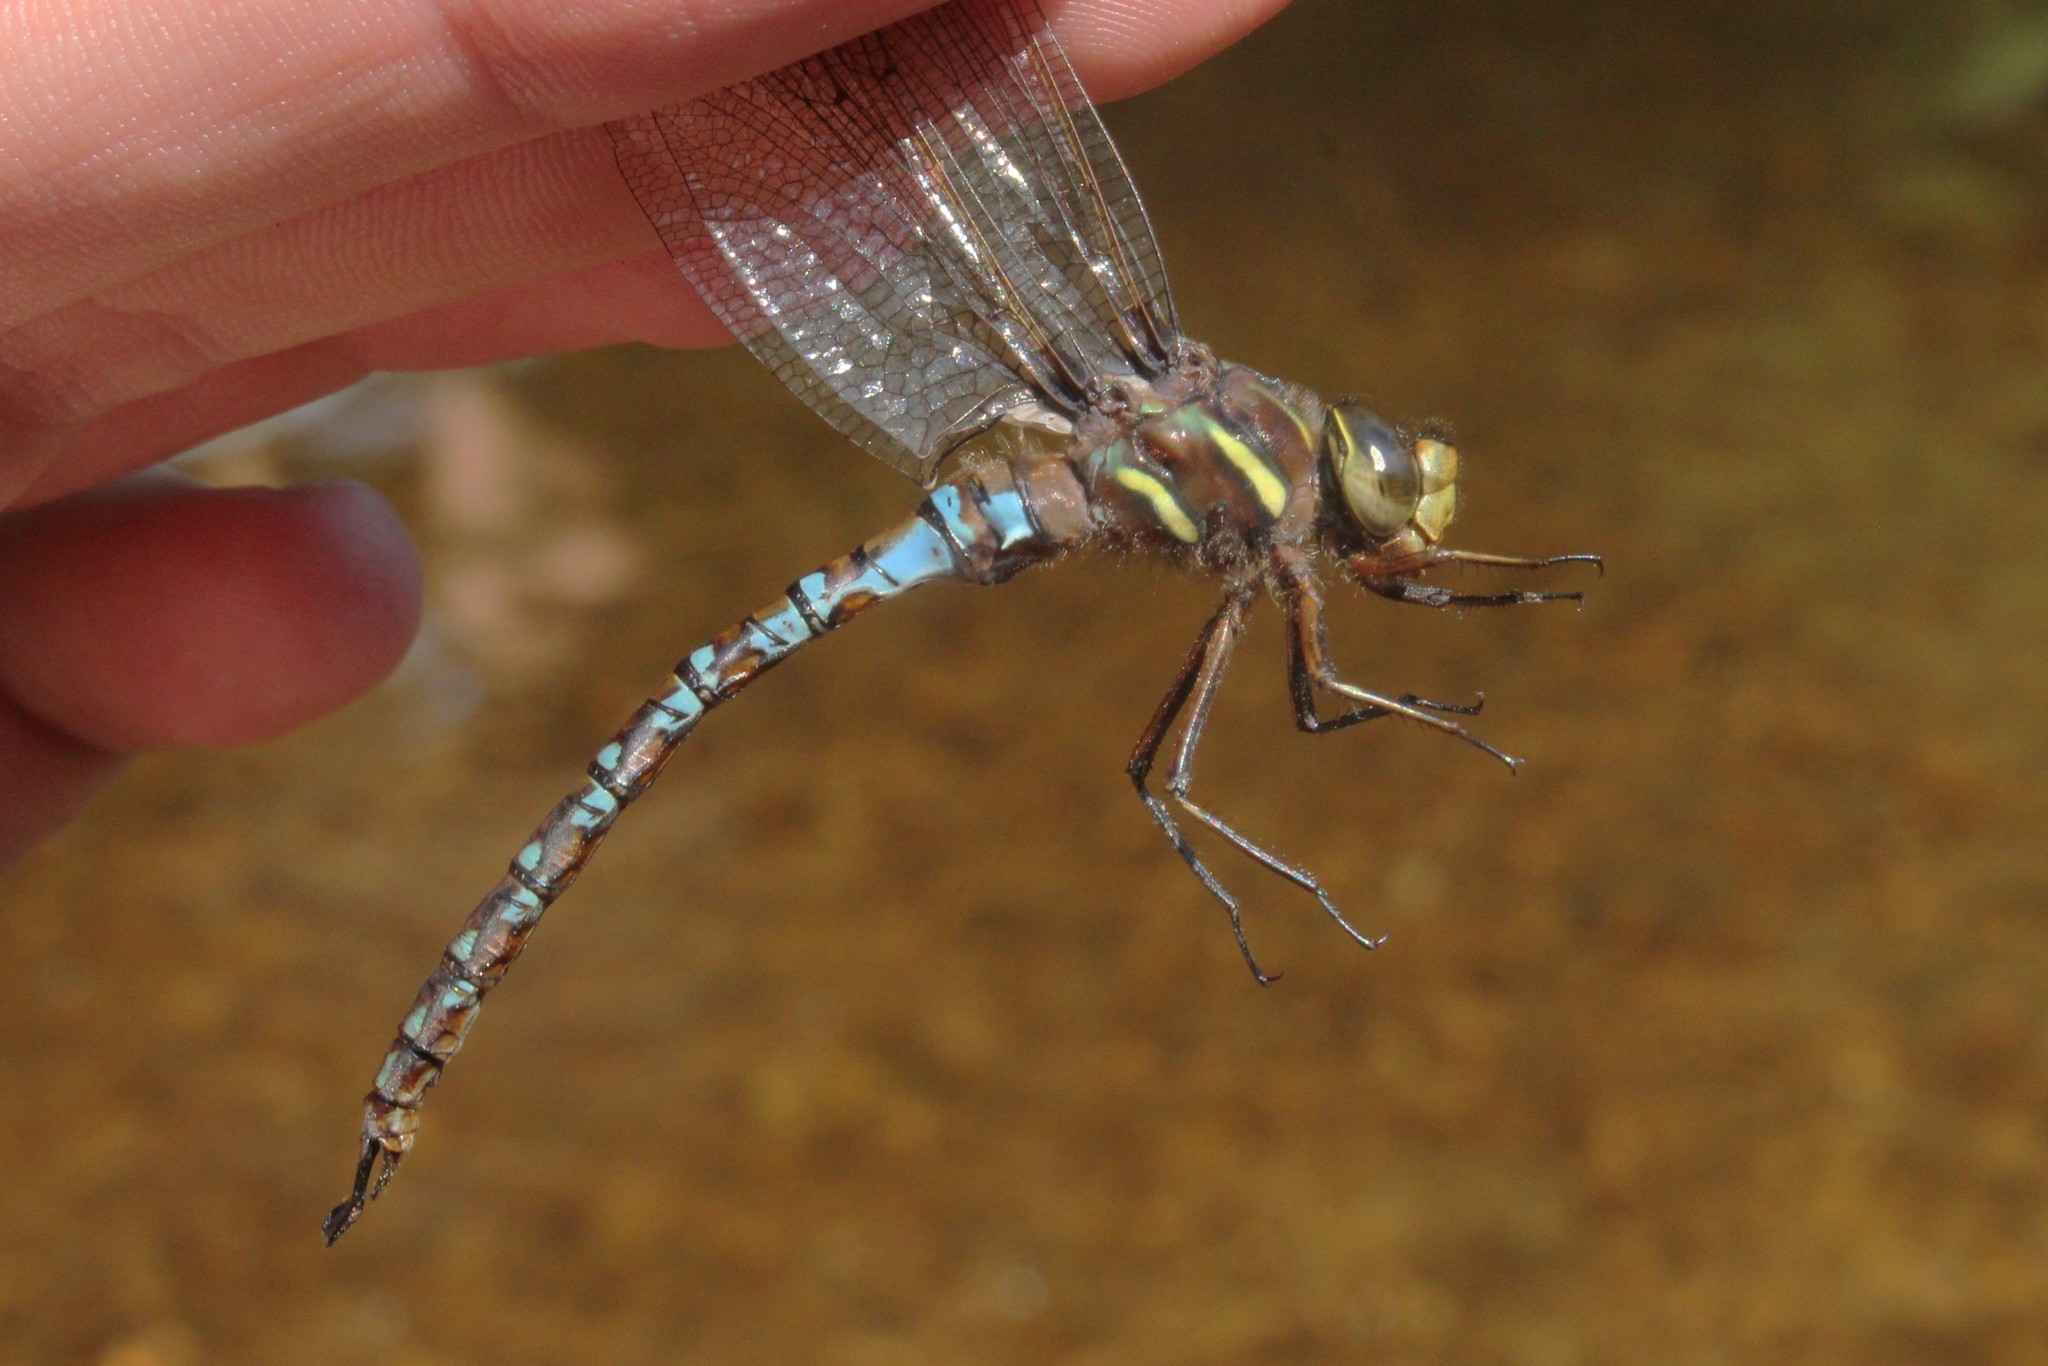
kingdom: Animalia
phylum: Arthropoda
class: Insecta
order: Odonata
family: Aeshnidae
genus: Basiaeschna
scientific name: Basiaeschna janata
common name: Springtime darner
